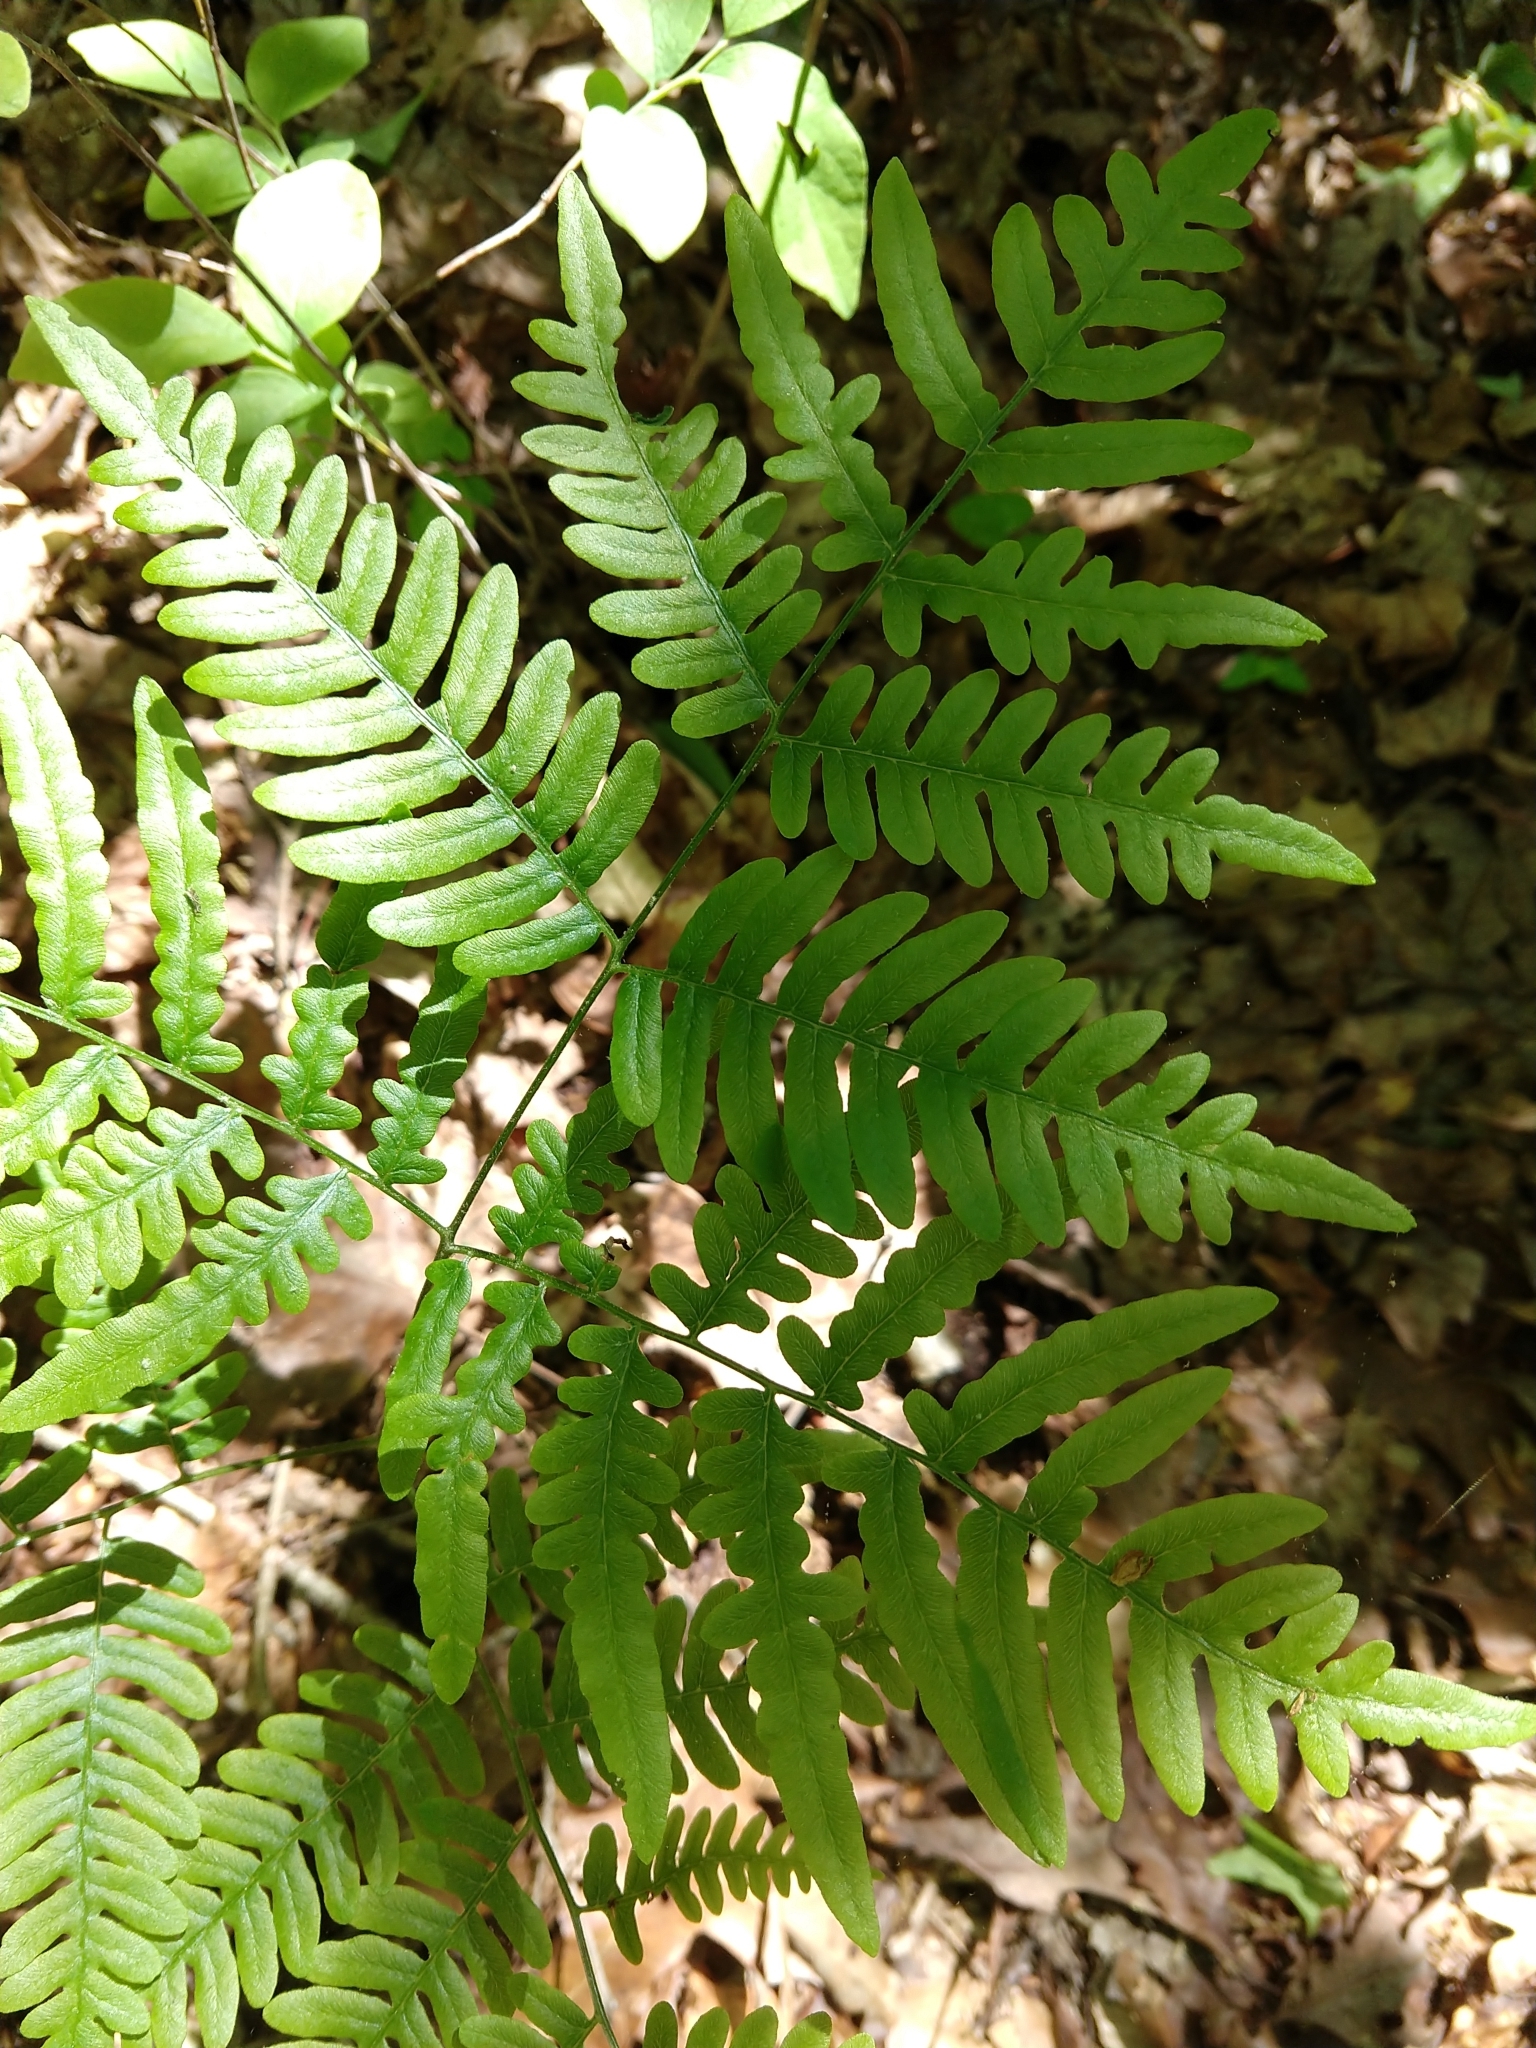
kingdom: Plantae
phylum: Tracheophyta
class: Polypodiopsida
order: Polypodiales
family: Dennstaedtiaceae
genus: Pteridium
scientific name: Pteridium
